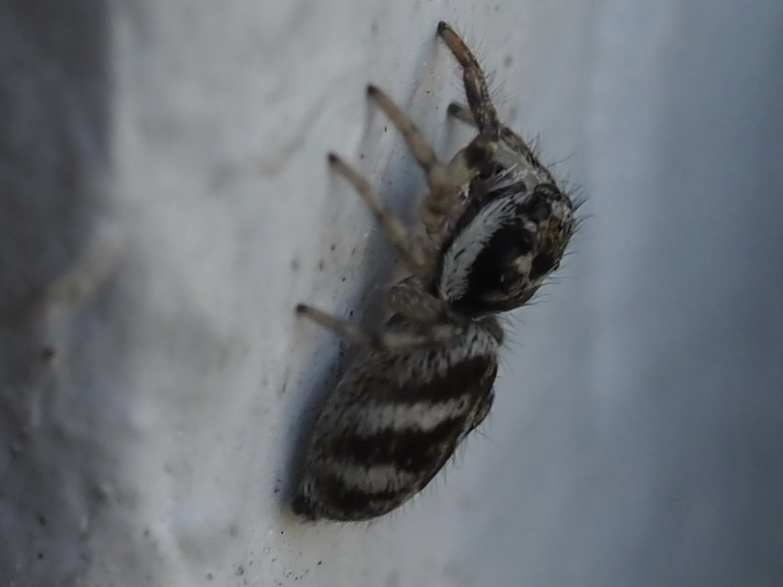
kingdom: Animalia
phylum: Arthropoda
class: Arachnida
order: Araneae
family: Salticidae
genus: Salticus
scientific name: Salticus scenicus
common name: Zebra jumper
